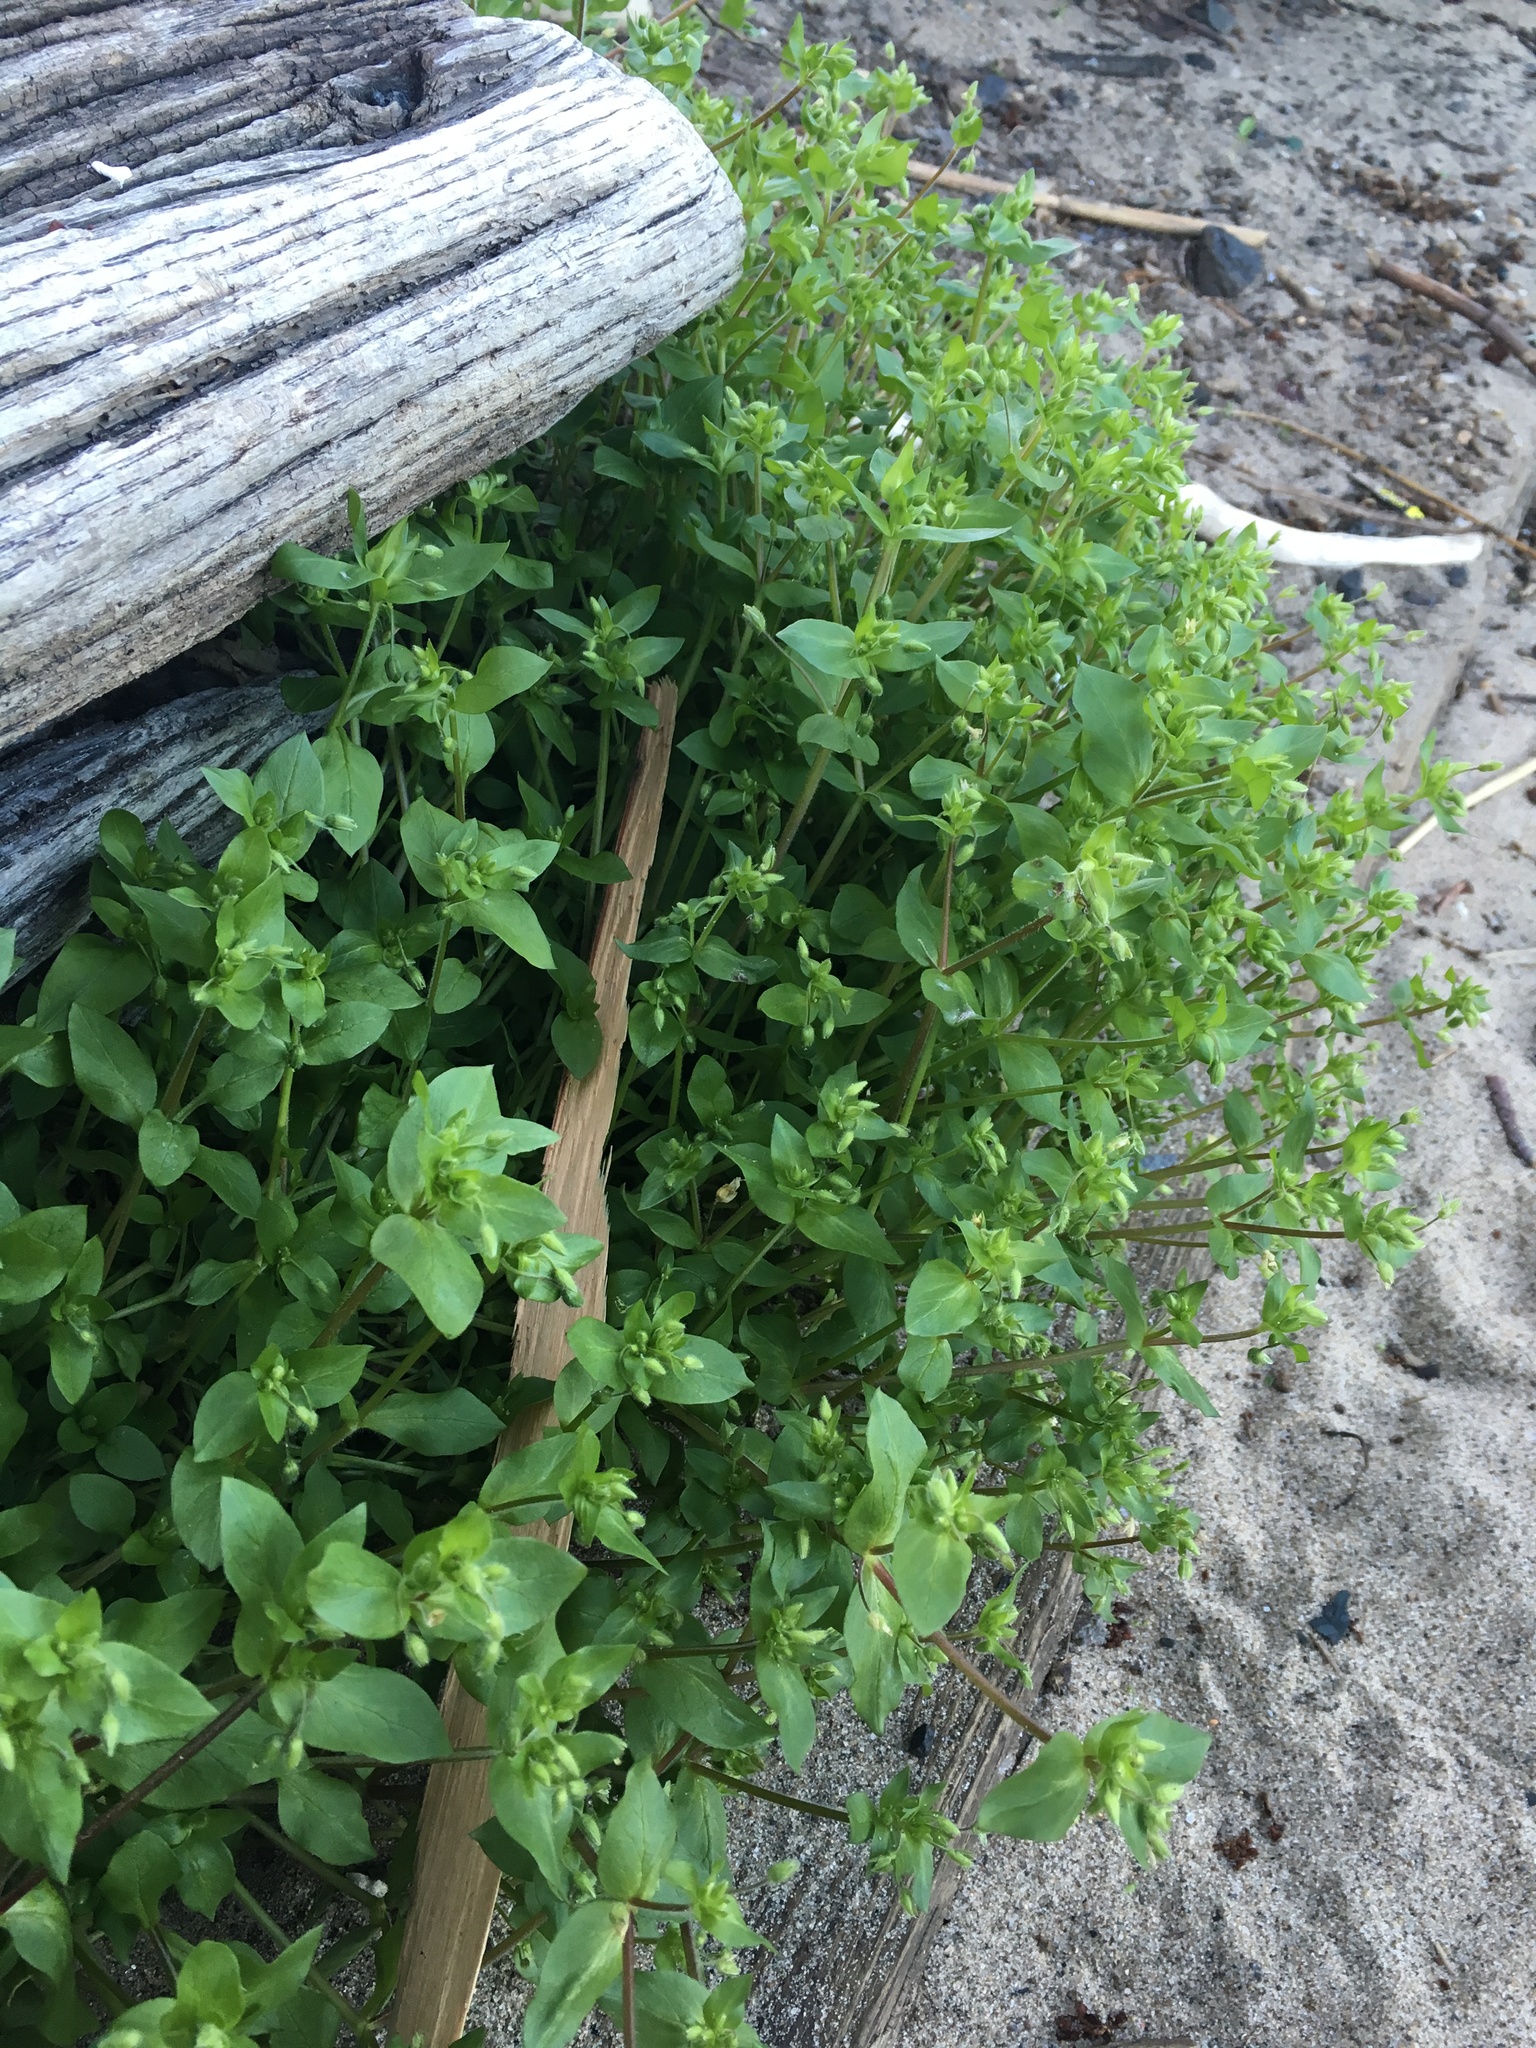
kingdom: Plantae
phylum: Tracheophyta
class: Magnoliopsida
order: Caryophyllales
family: Caryophyllaceae
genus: Stellaria
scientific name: Stellaria media
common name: Common chickweed
